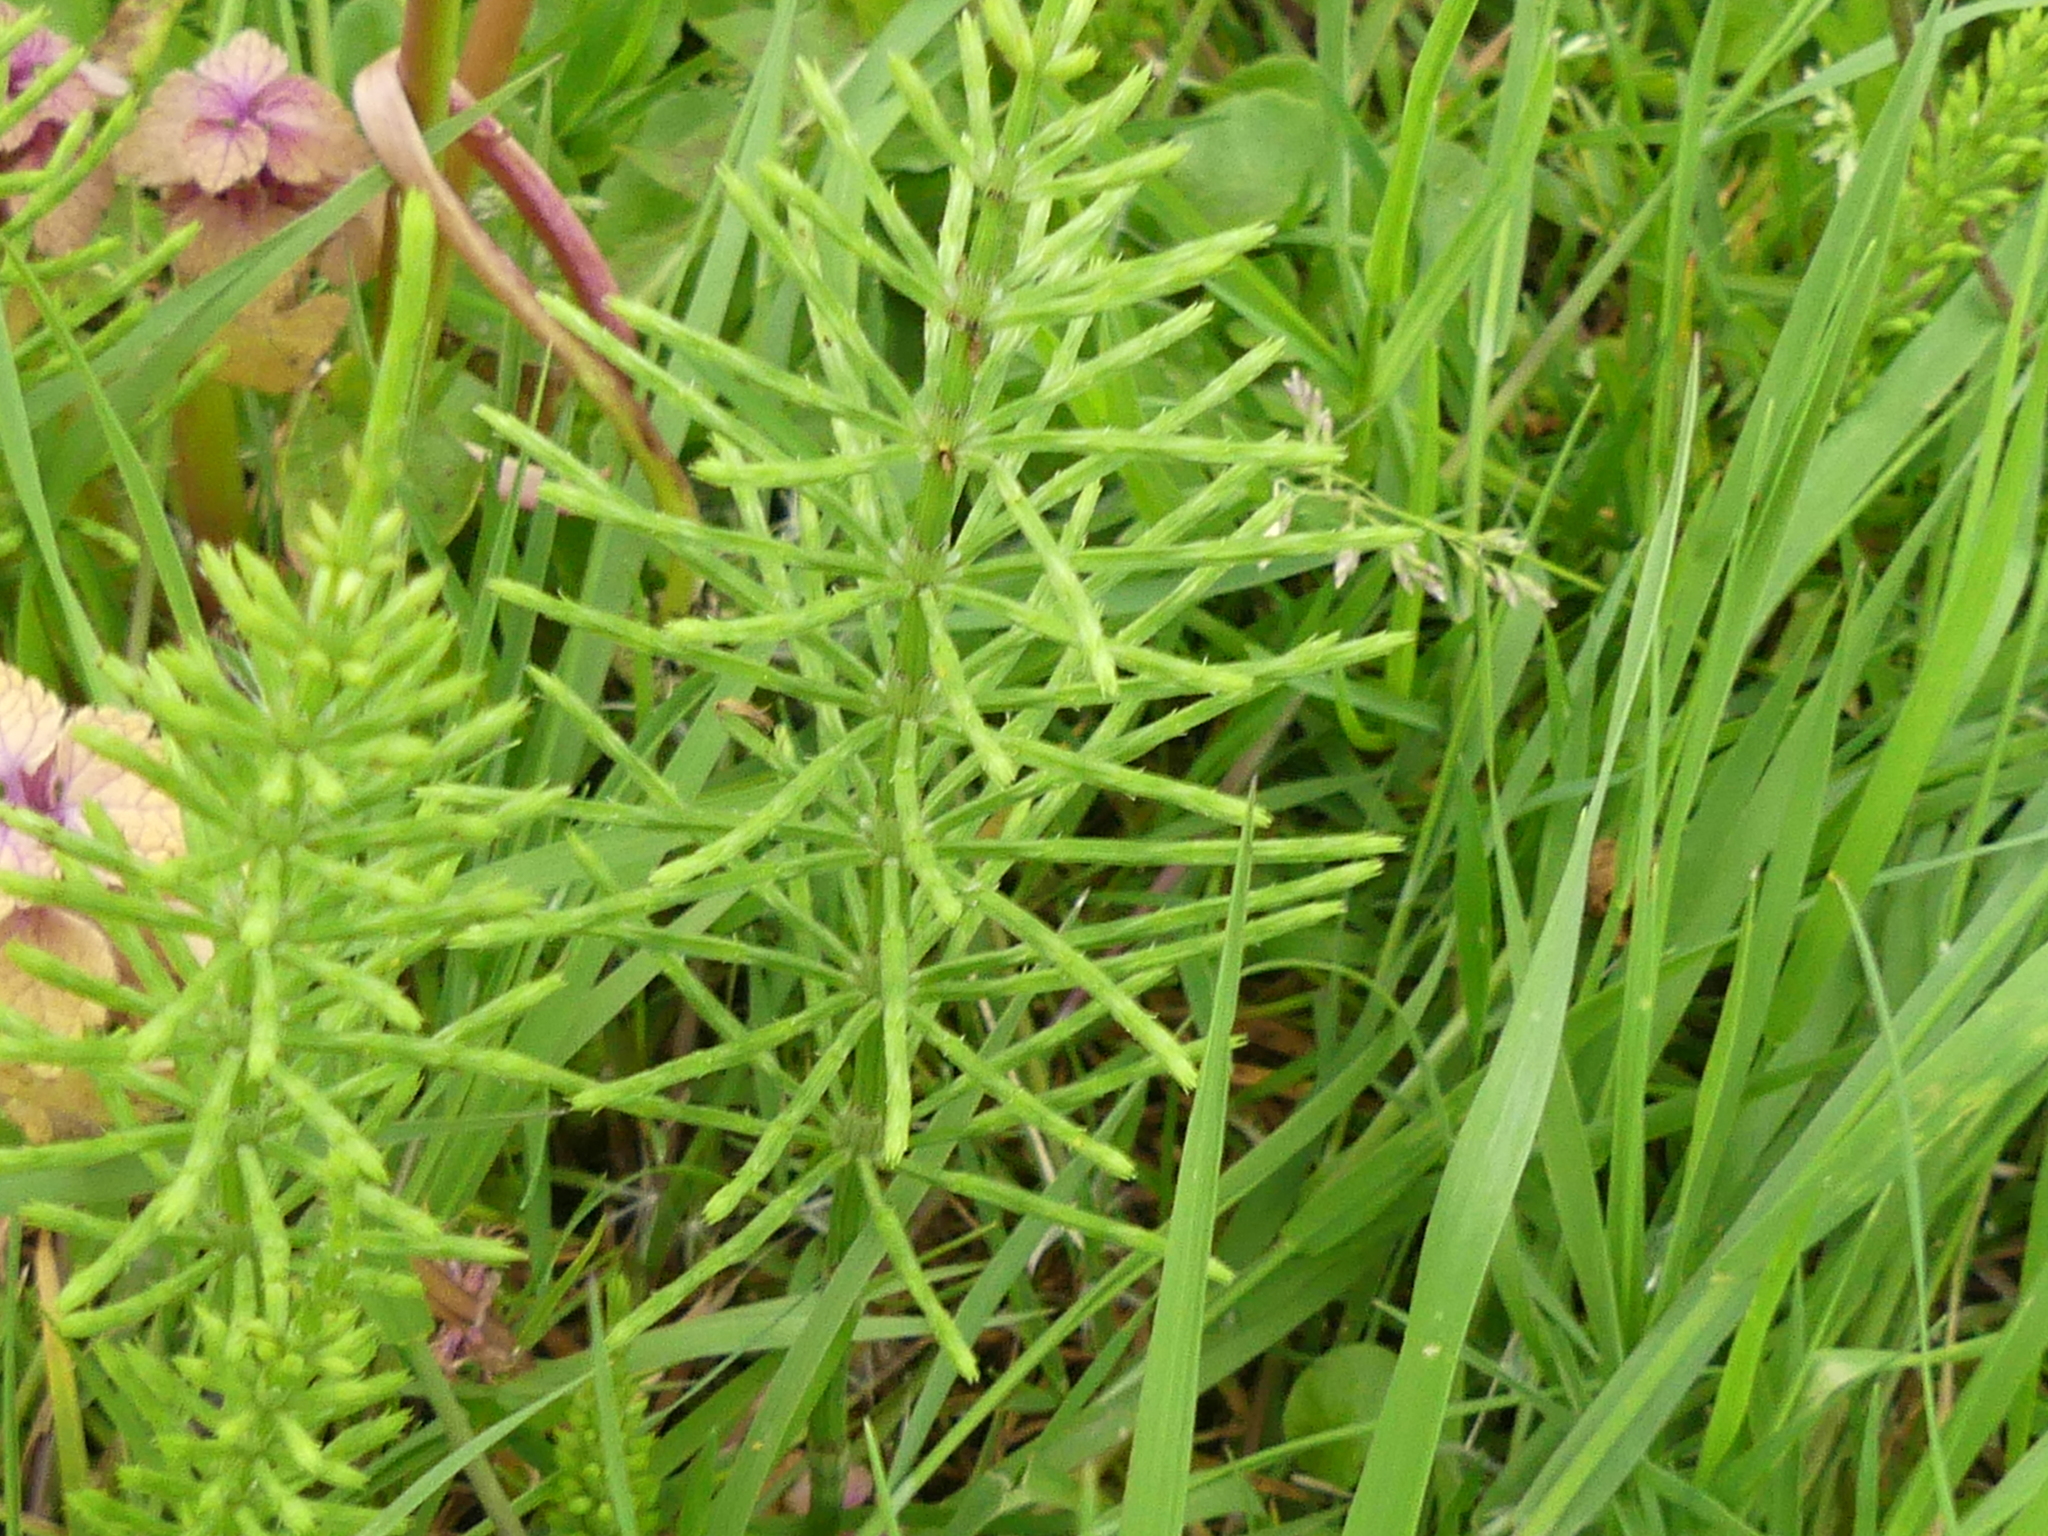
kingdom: Plantae
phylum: Tracheophyta
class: Polypodiopsida
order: Equisetales
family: Equisetaceae
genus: Equisetum
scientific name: Equisetum arvense
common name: Field horsetail
